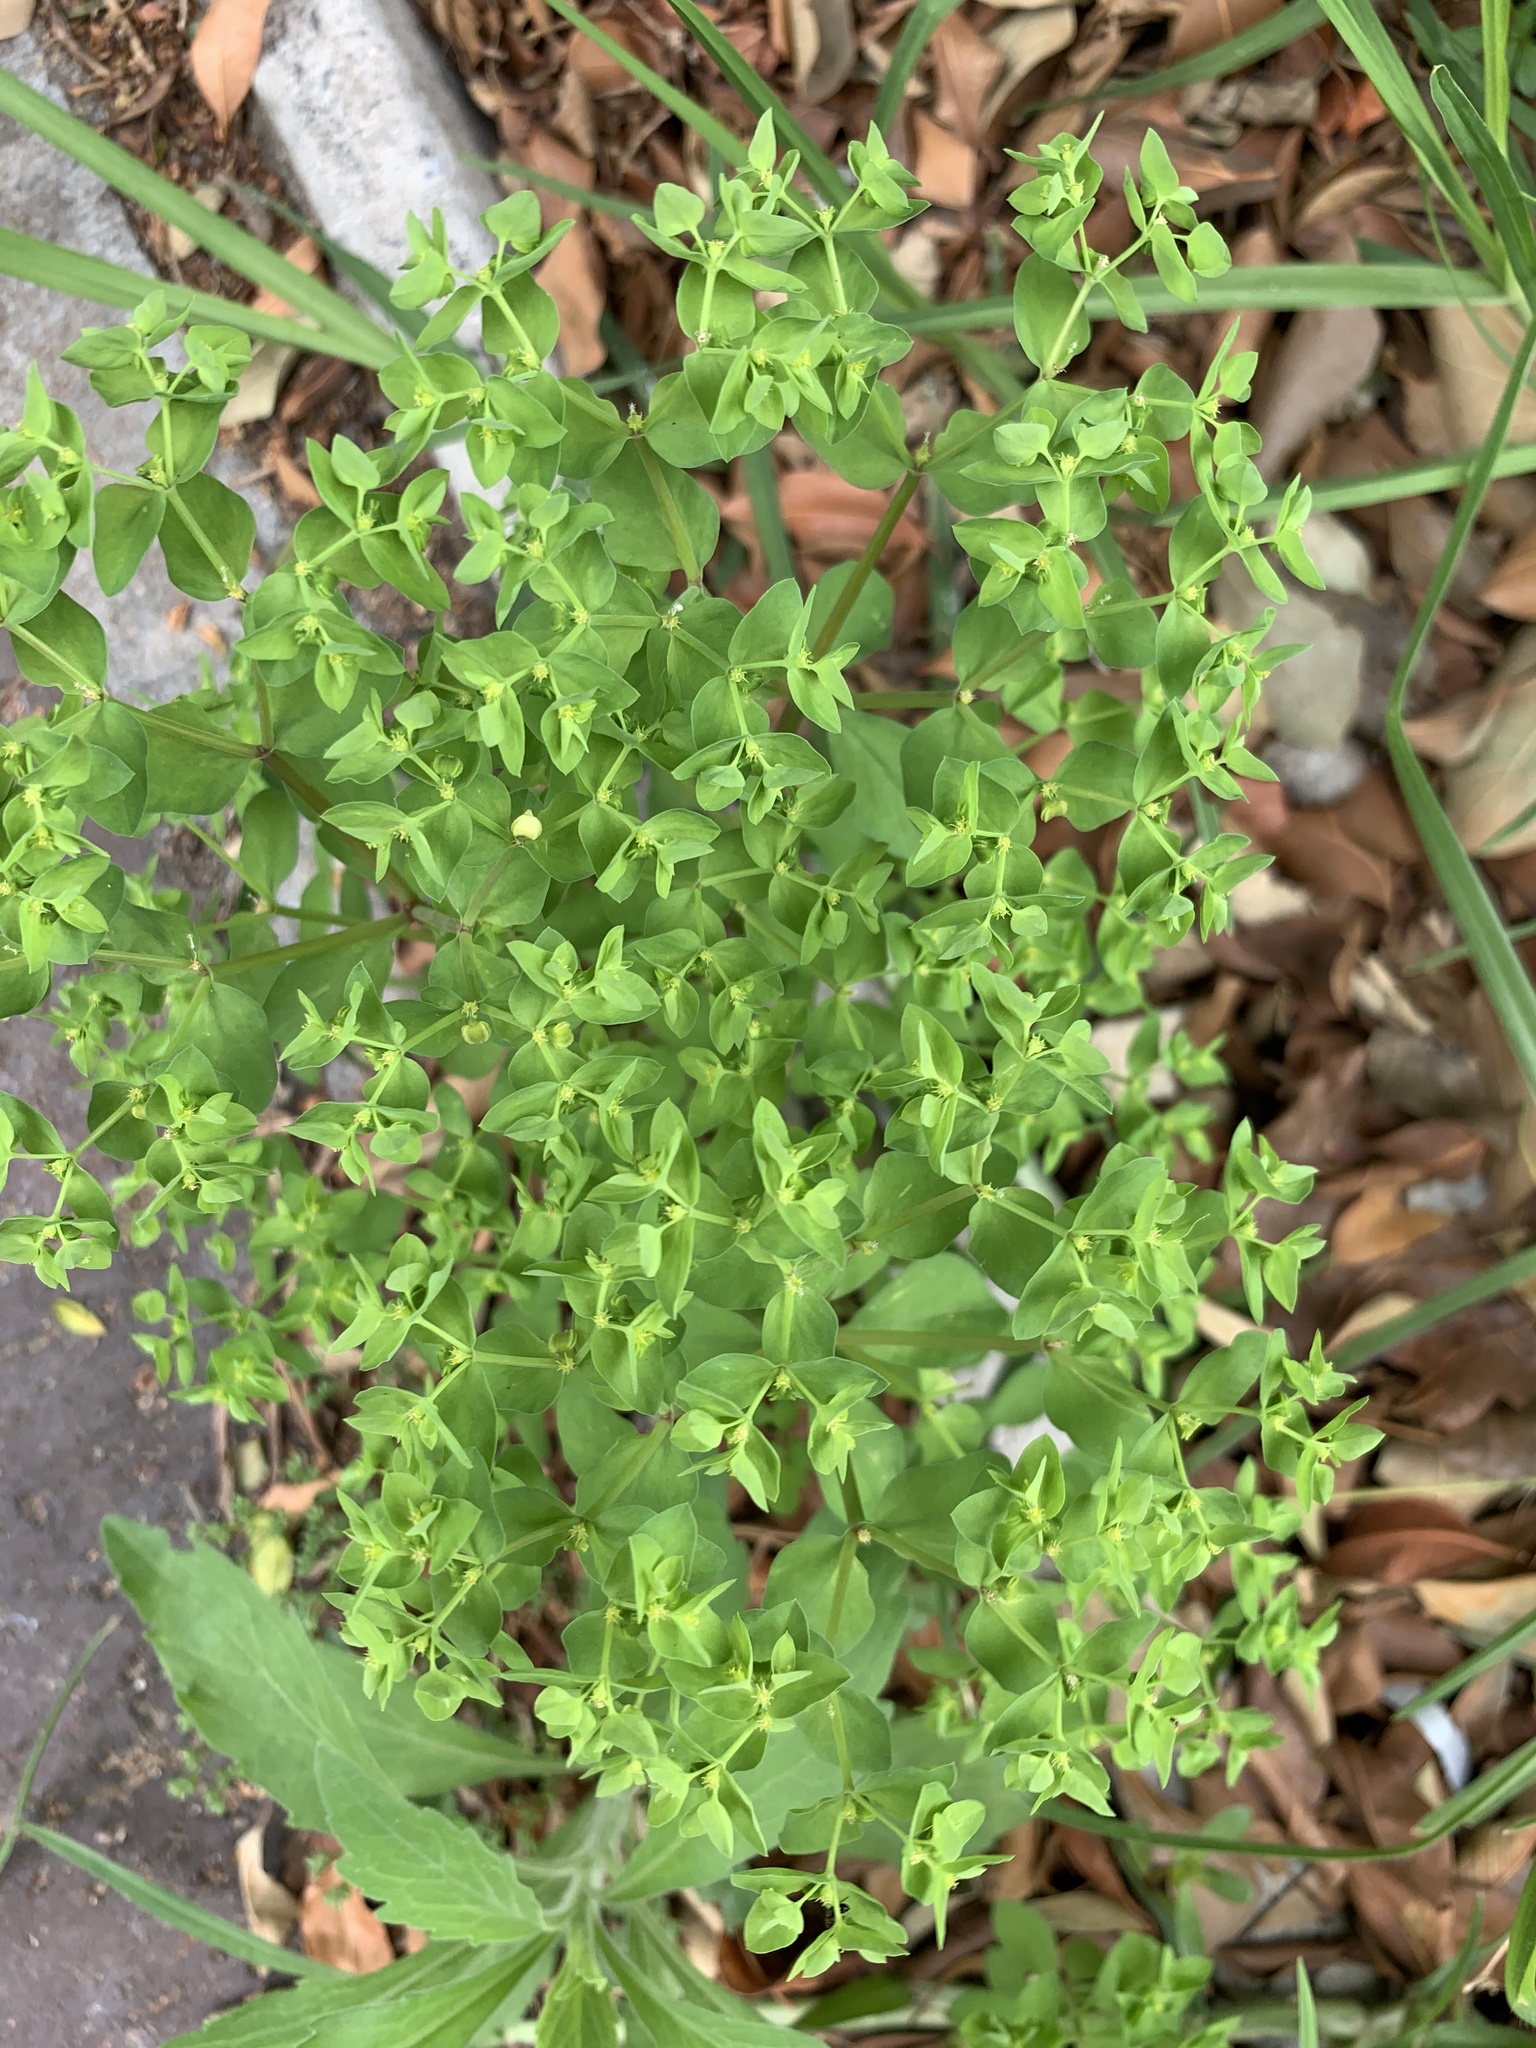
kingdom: Plantae
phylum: Tracheophyta
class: Magnoliopsida
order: Malpighiales
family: Euphorbiaceae
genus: Euphorbia
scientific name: Euphorbia peplus
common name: Petty spurge
